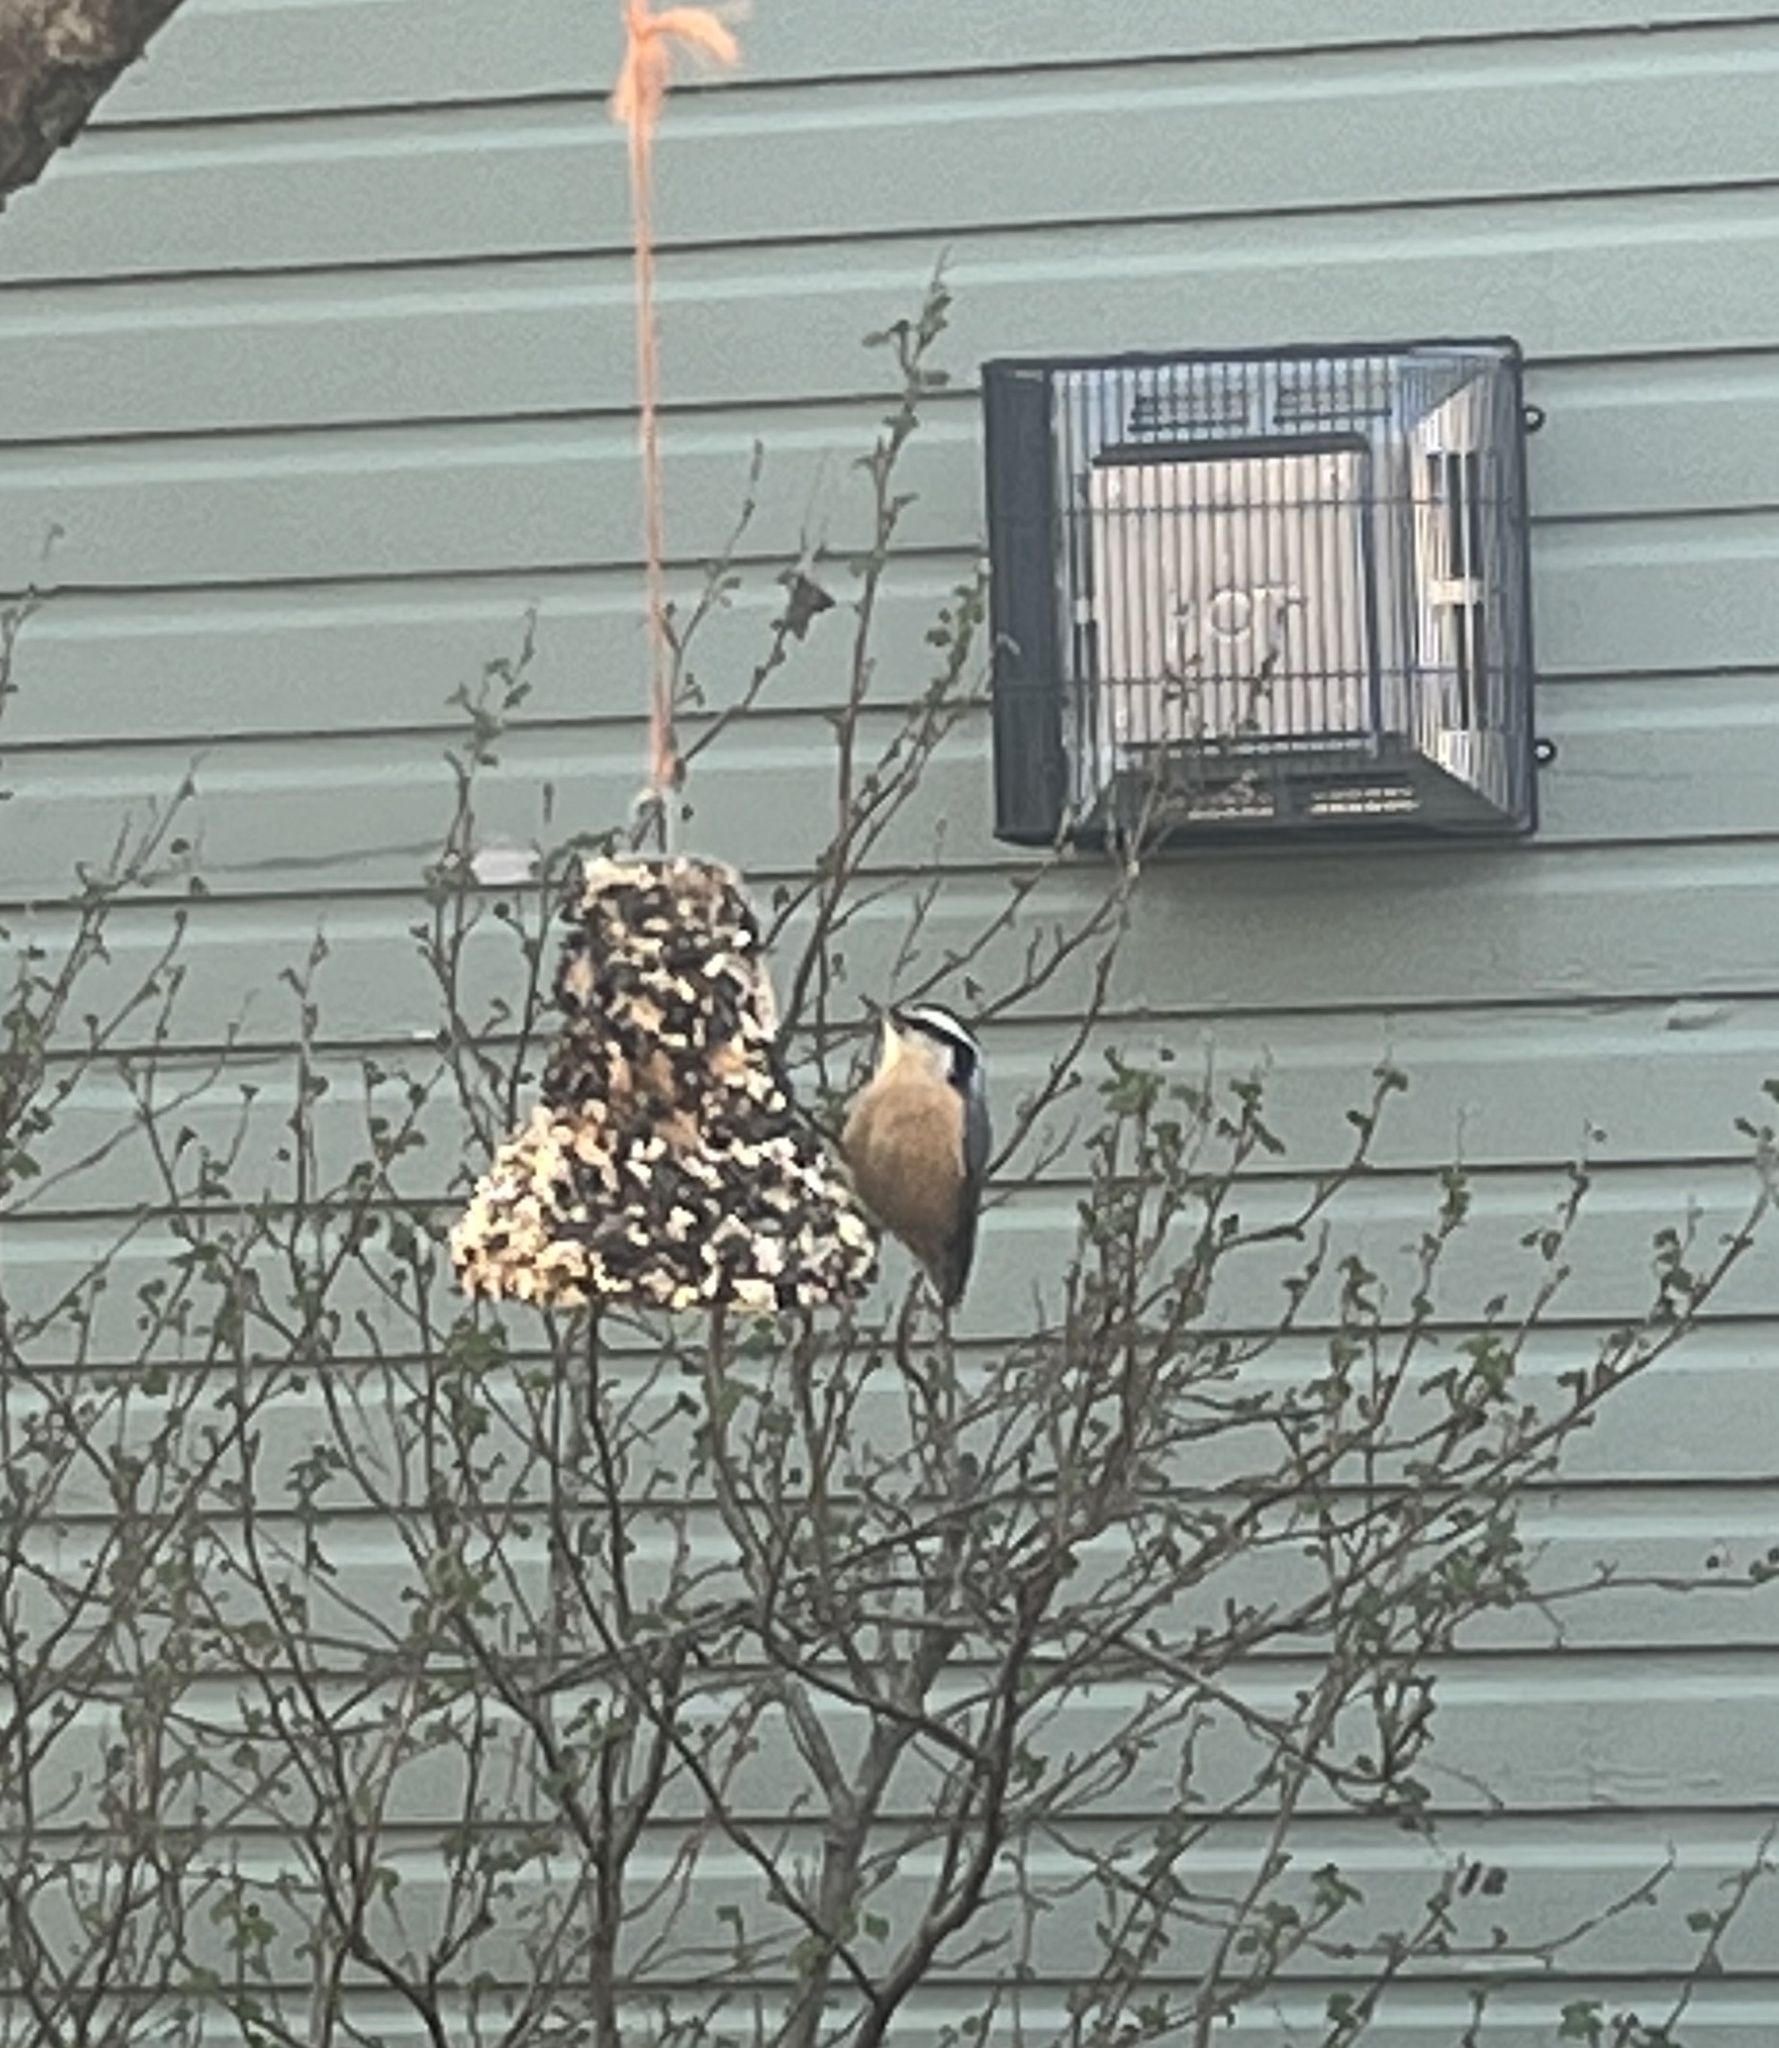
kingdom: Animalia
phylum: Chordata
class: Aves
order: Passeriformes
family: Sittidae
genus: Sitta
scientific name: Sitta canadensis
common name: Red-breasted nuthatch
